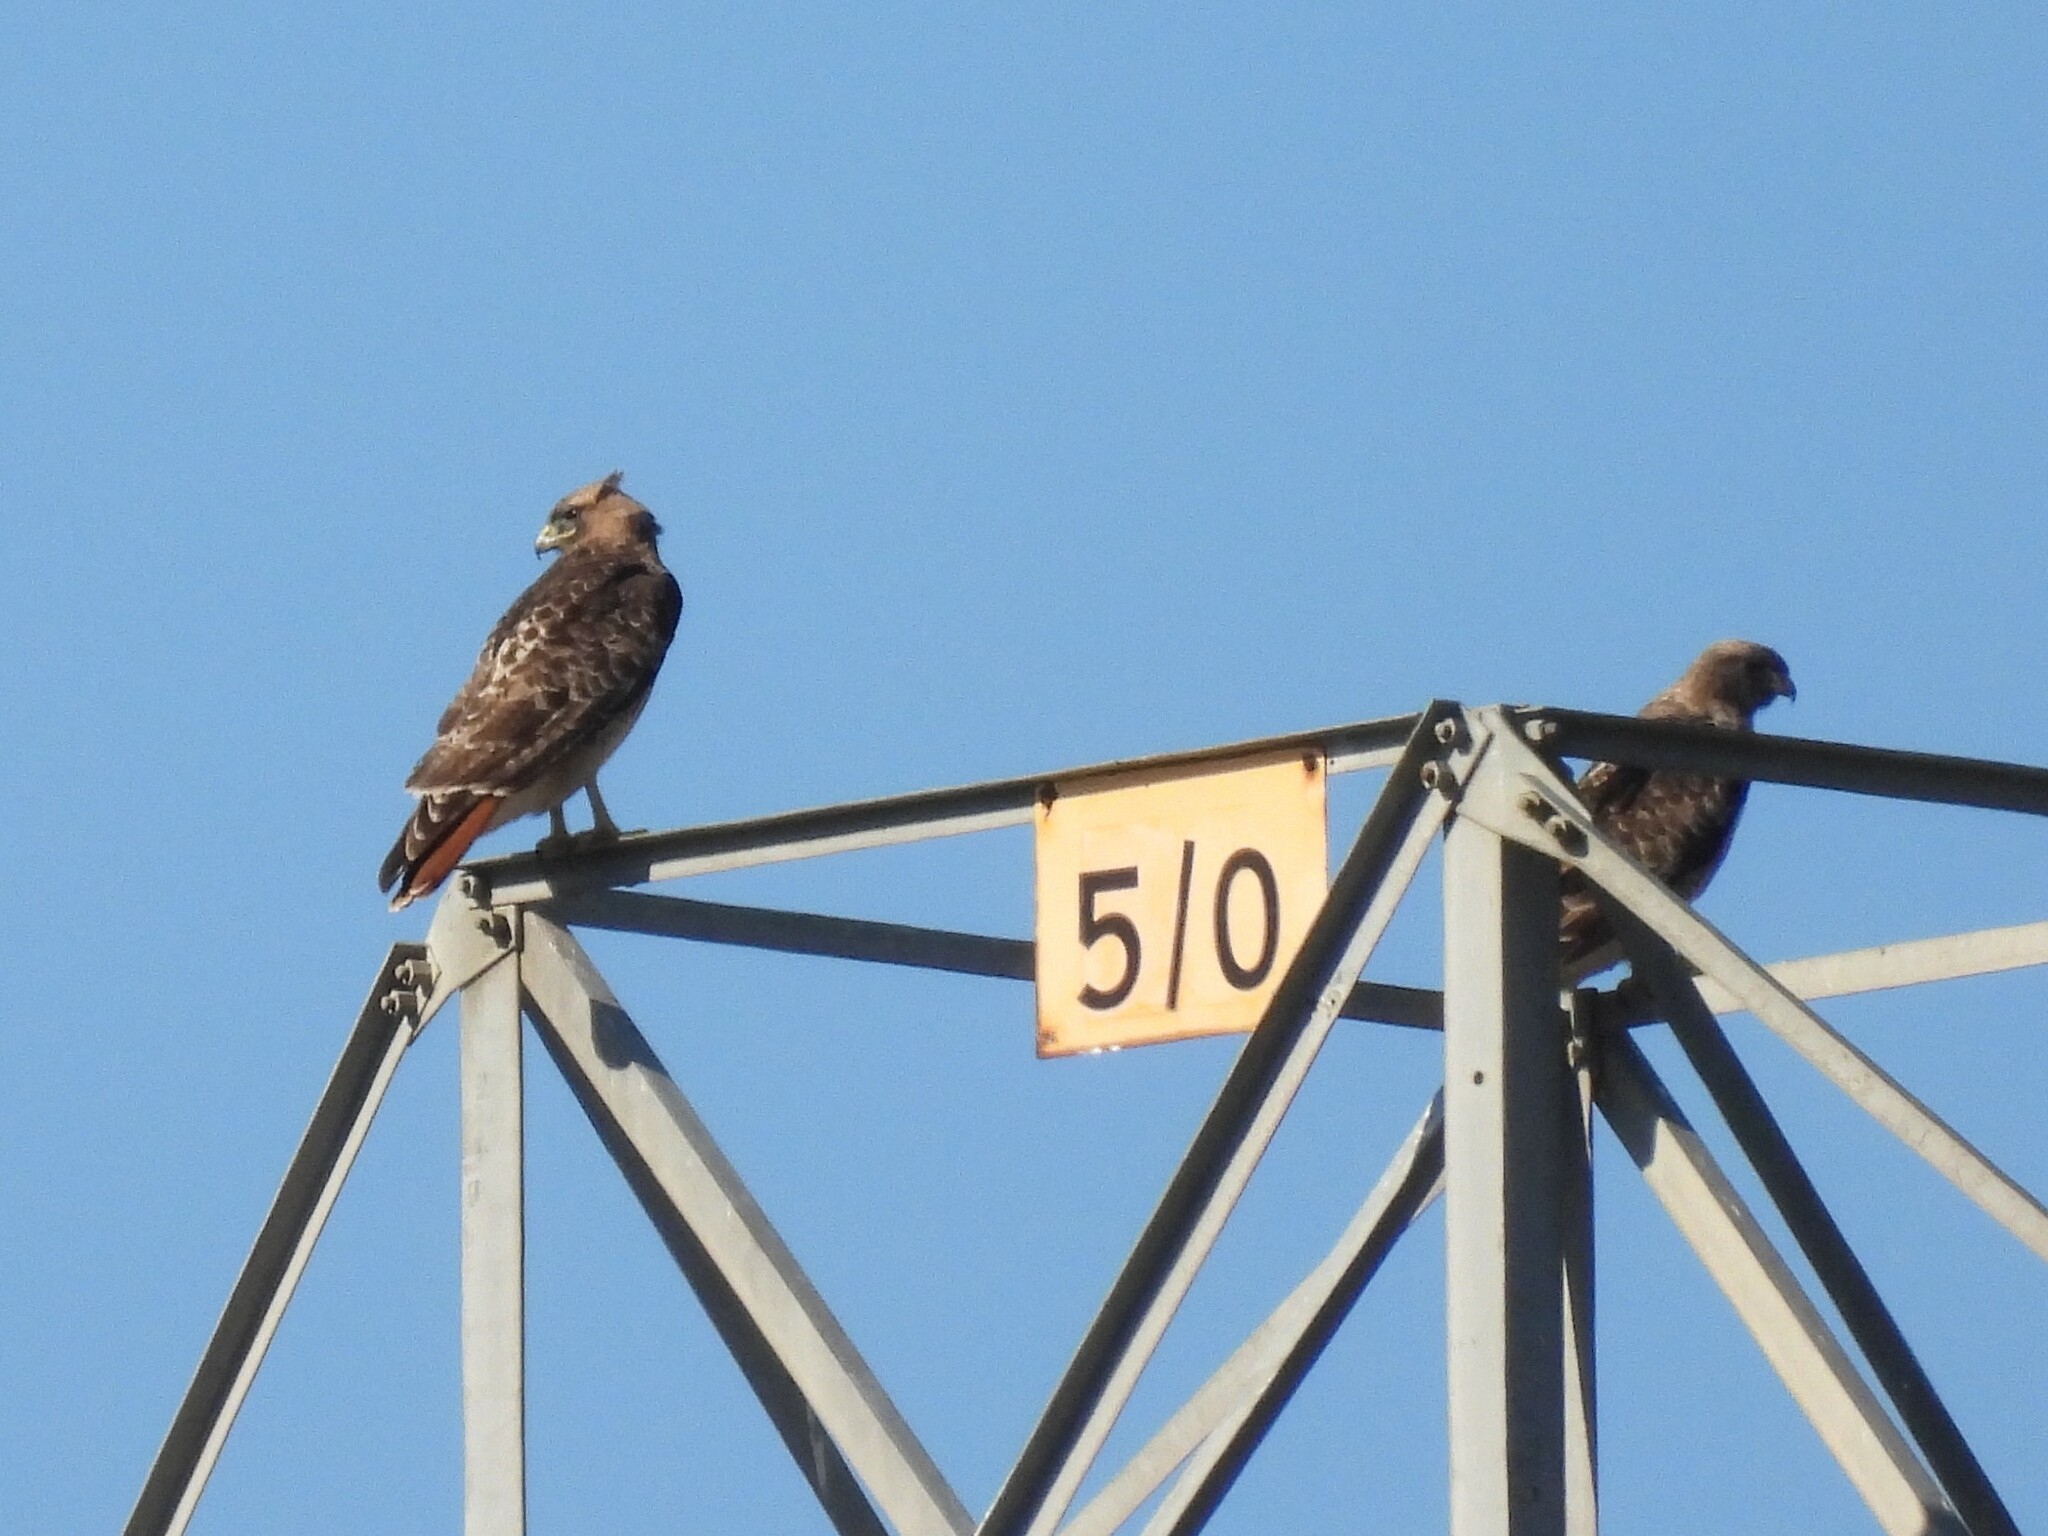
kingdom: Animalia
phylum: Chordata
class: Aves
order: Accipitriformes
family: Accipitridae
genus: Buteo
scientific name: Buteo jamaicensis
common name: Red-tailed hawk
